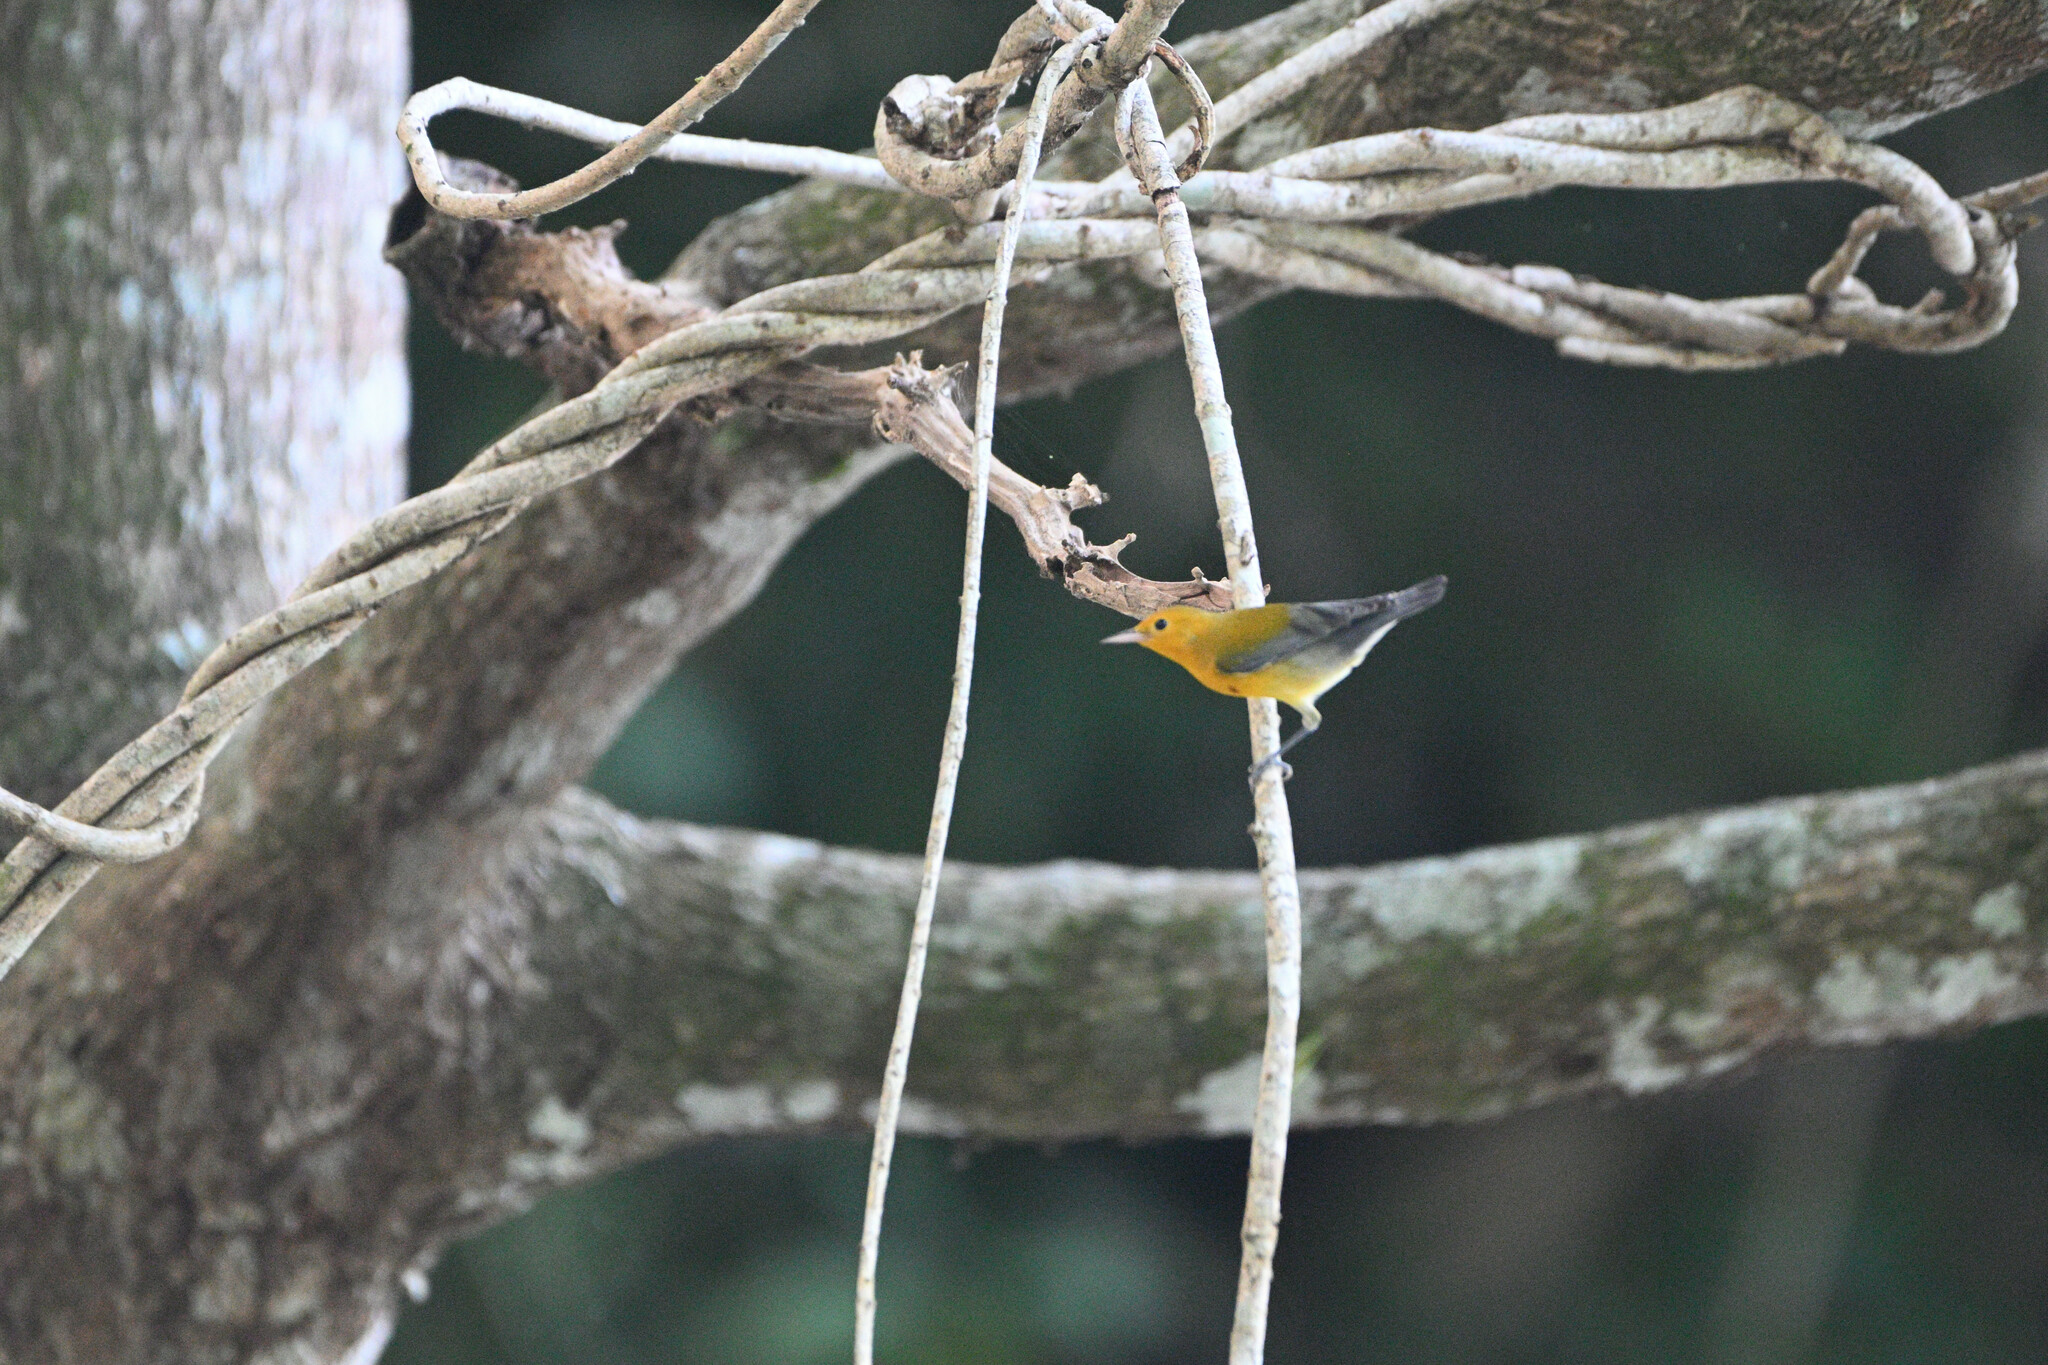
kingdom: Animalia
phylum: Chordata
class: Aves
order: Passeriformes
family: Parulidae
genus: Protonotaria
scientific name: Protonotaria citrea
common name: Prothonotary warbler
